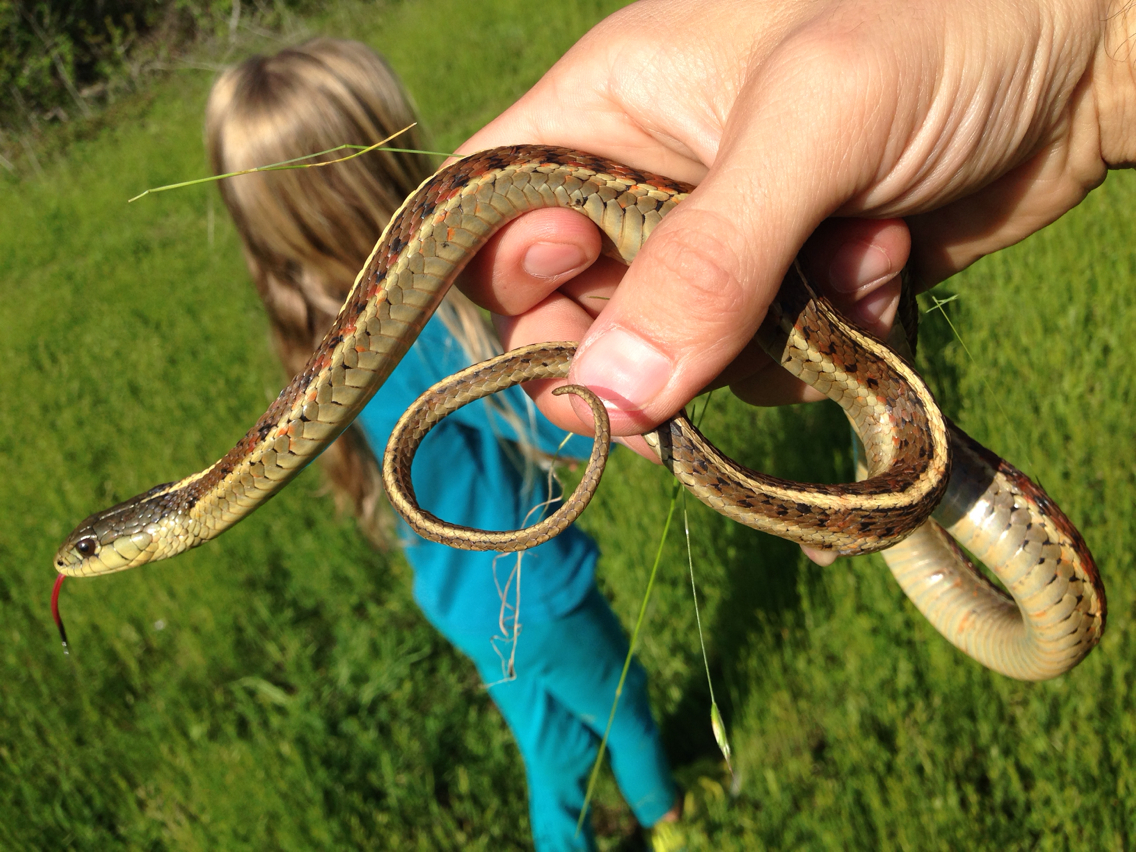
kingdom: Animalia
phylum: Chordata
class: Squamata
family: Colubridae
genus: Thamnophis
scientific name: Thamnophis elegans
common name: Western terrestrial garter snake
